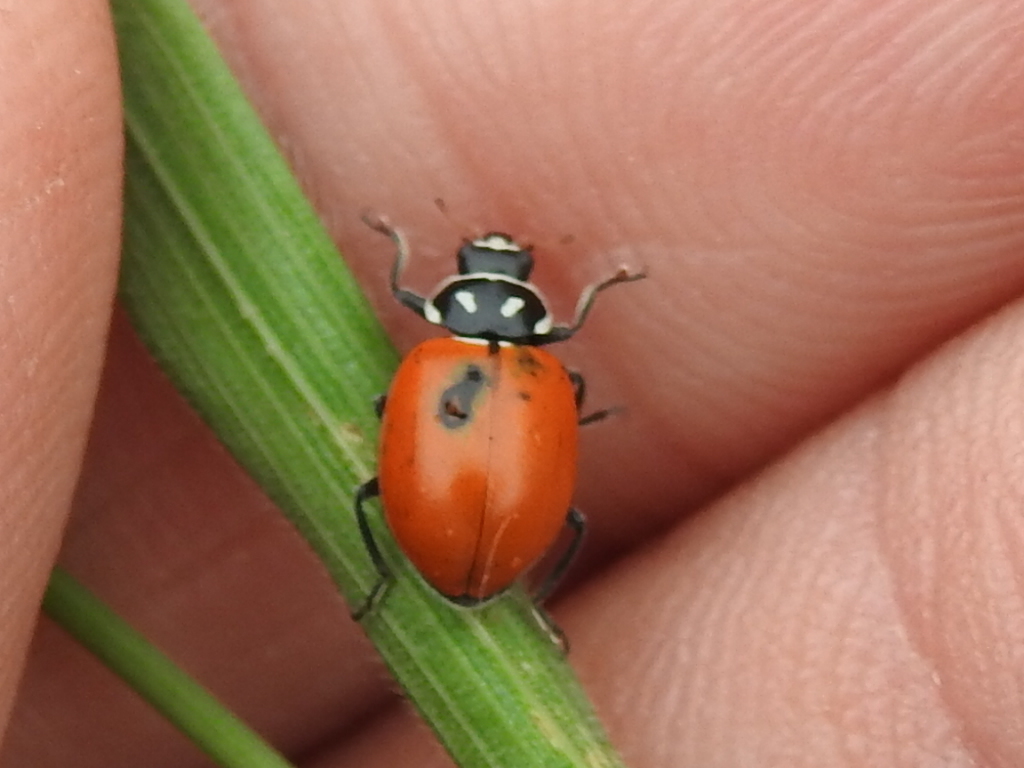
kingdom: Animalia
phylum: Arthropoda
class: Insecta
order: Coleoptera
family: Coccinellidae
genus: Hippodamia
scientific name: Hippodamia convergens
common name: Convergent lady beetle
